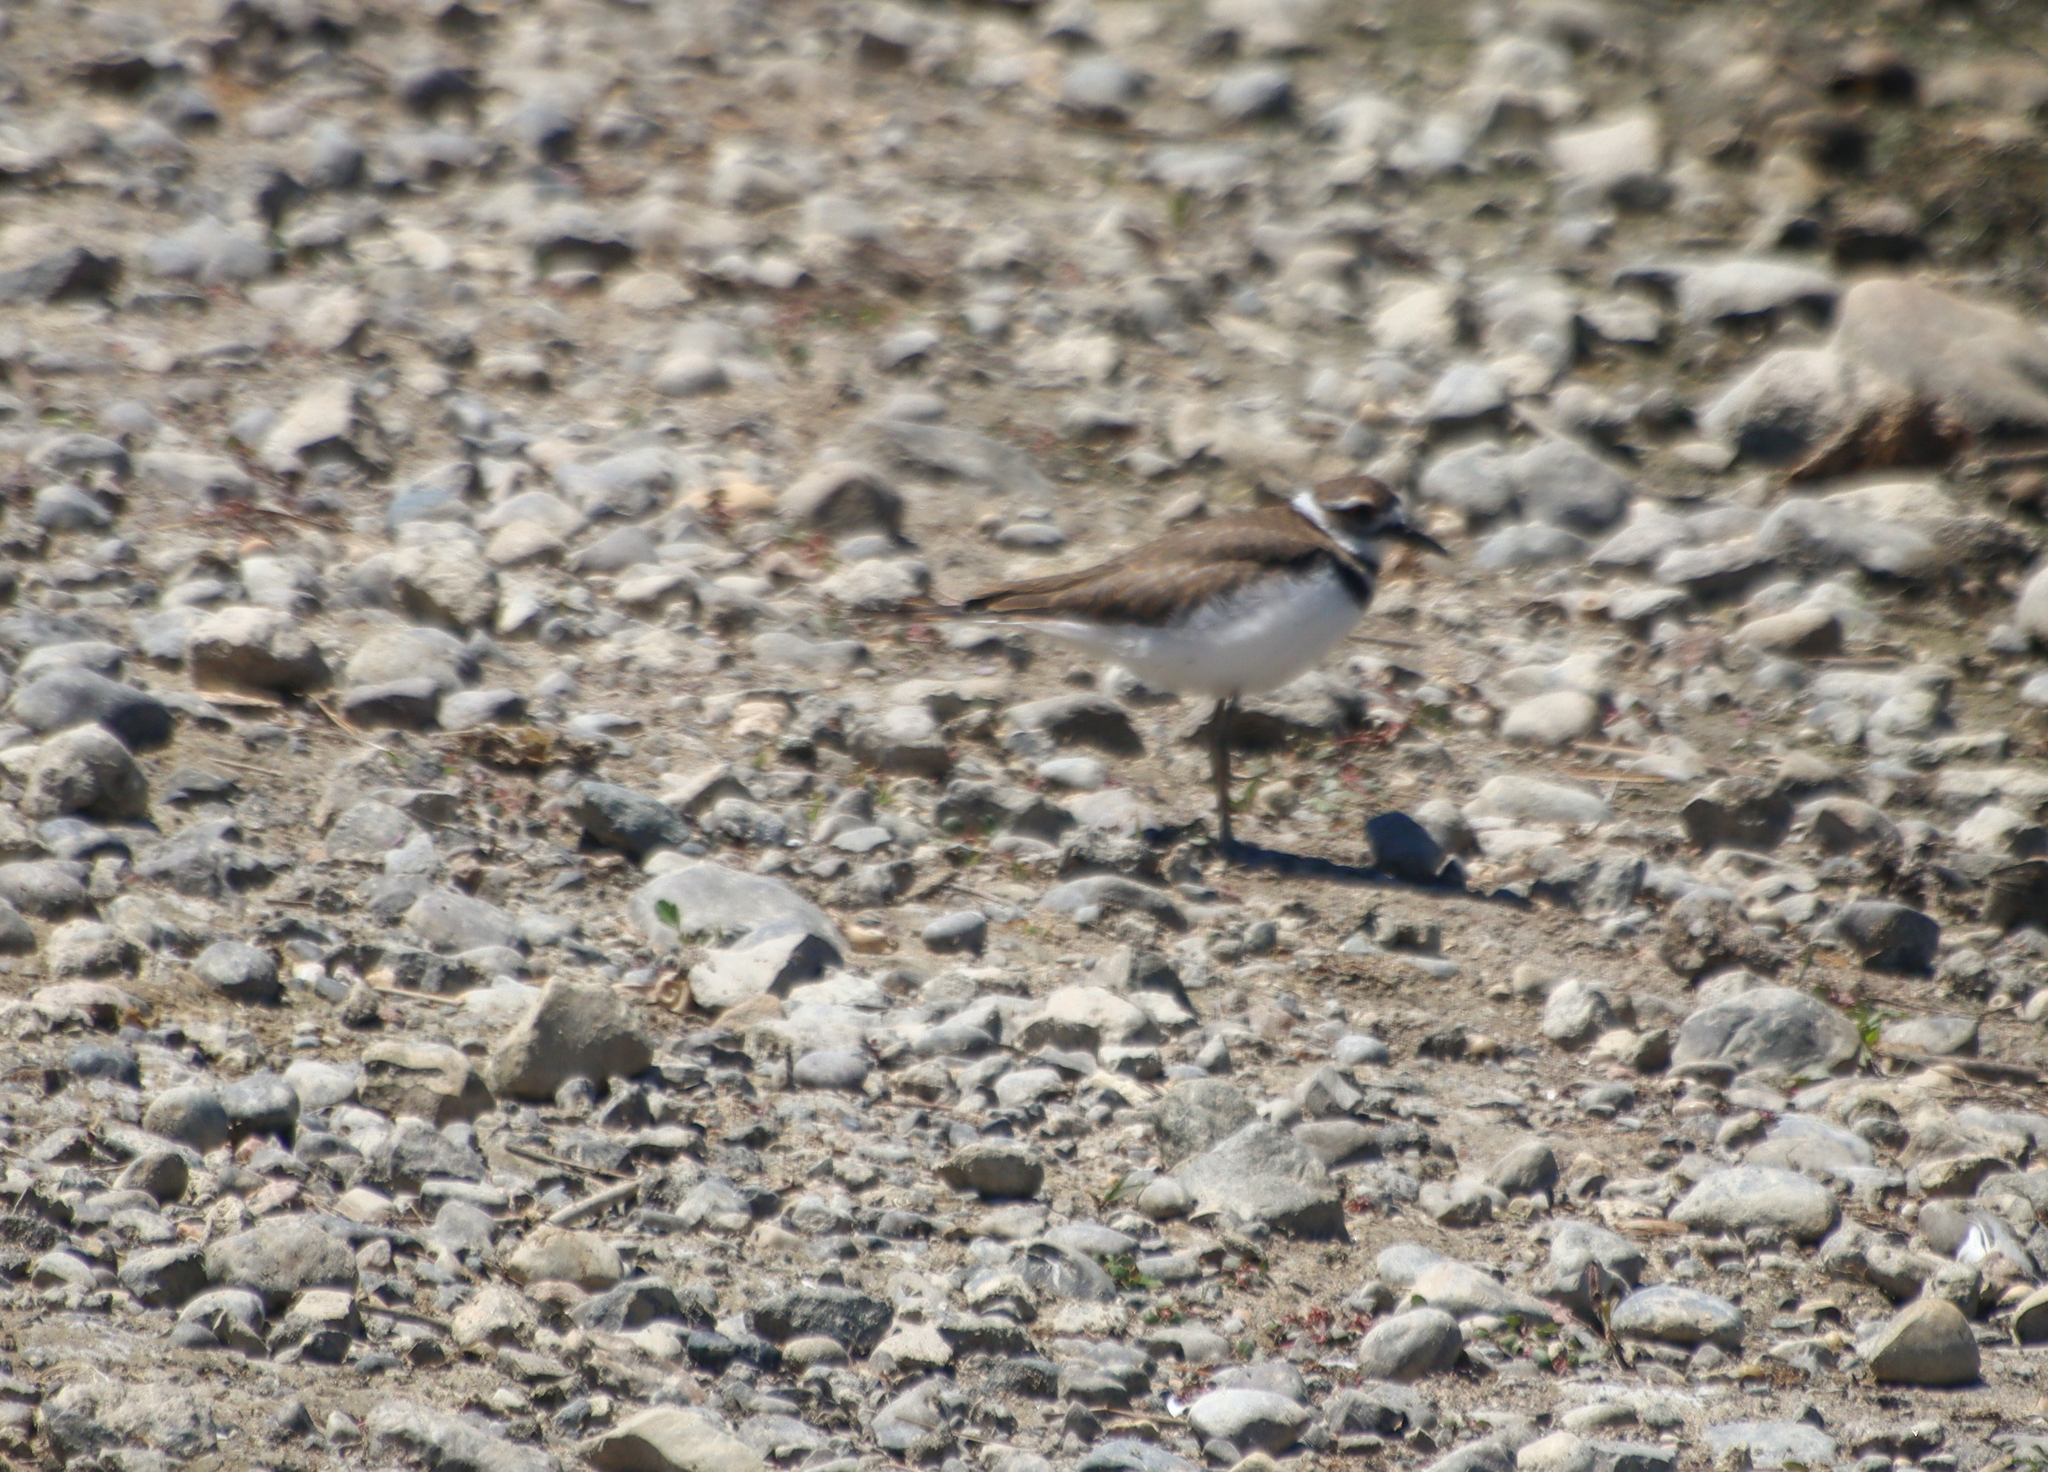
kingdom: Animalia
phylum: Chordata
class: Aves
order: Charadriiformes
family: Charadriidae
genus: Charadrius
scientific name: Charadrius vociferus
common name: Killdeer
